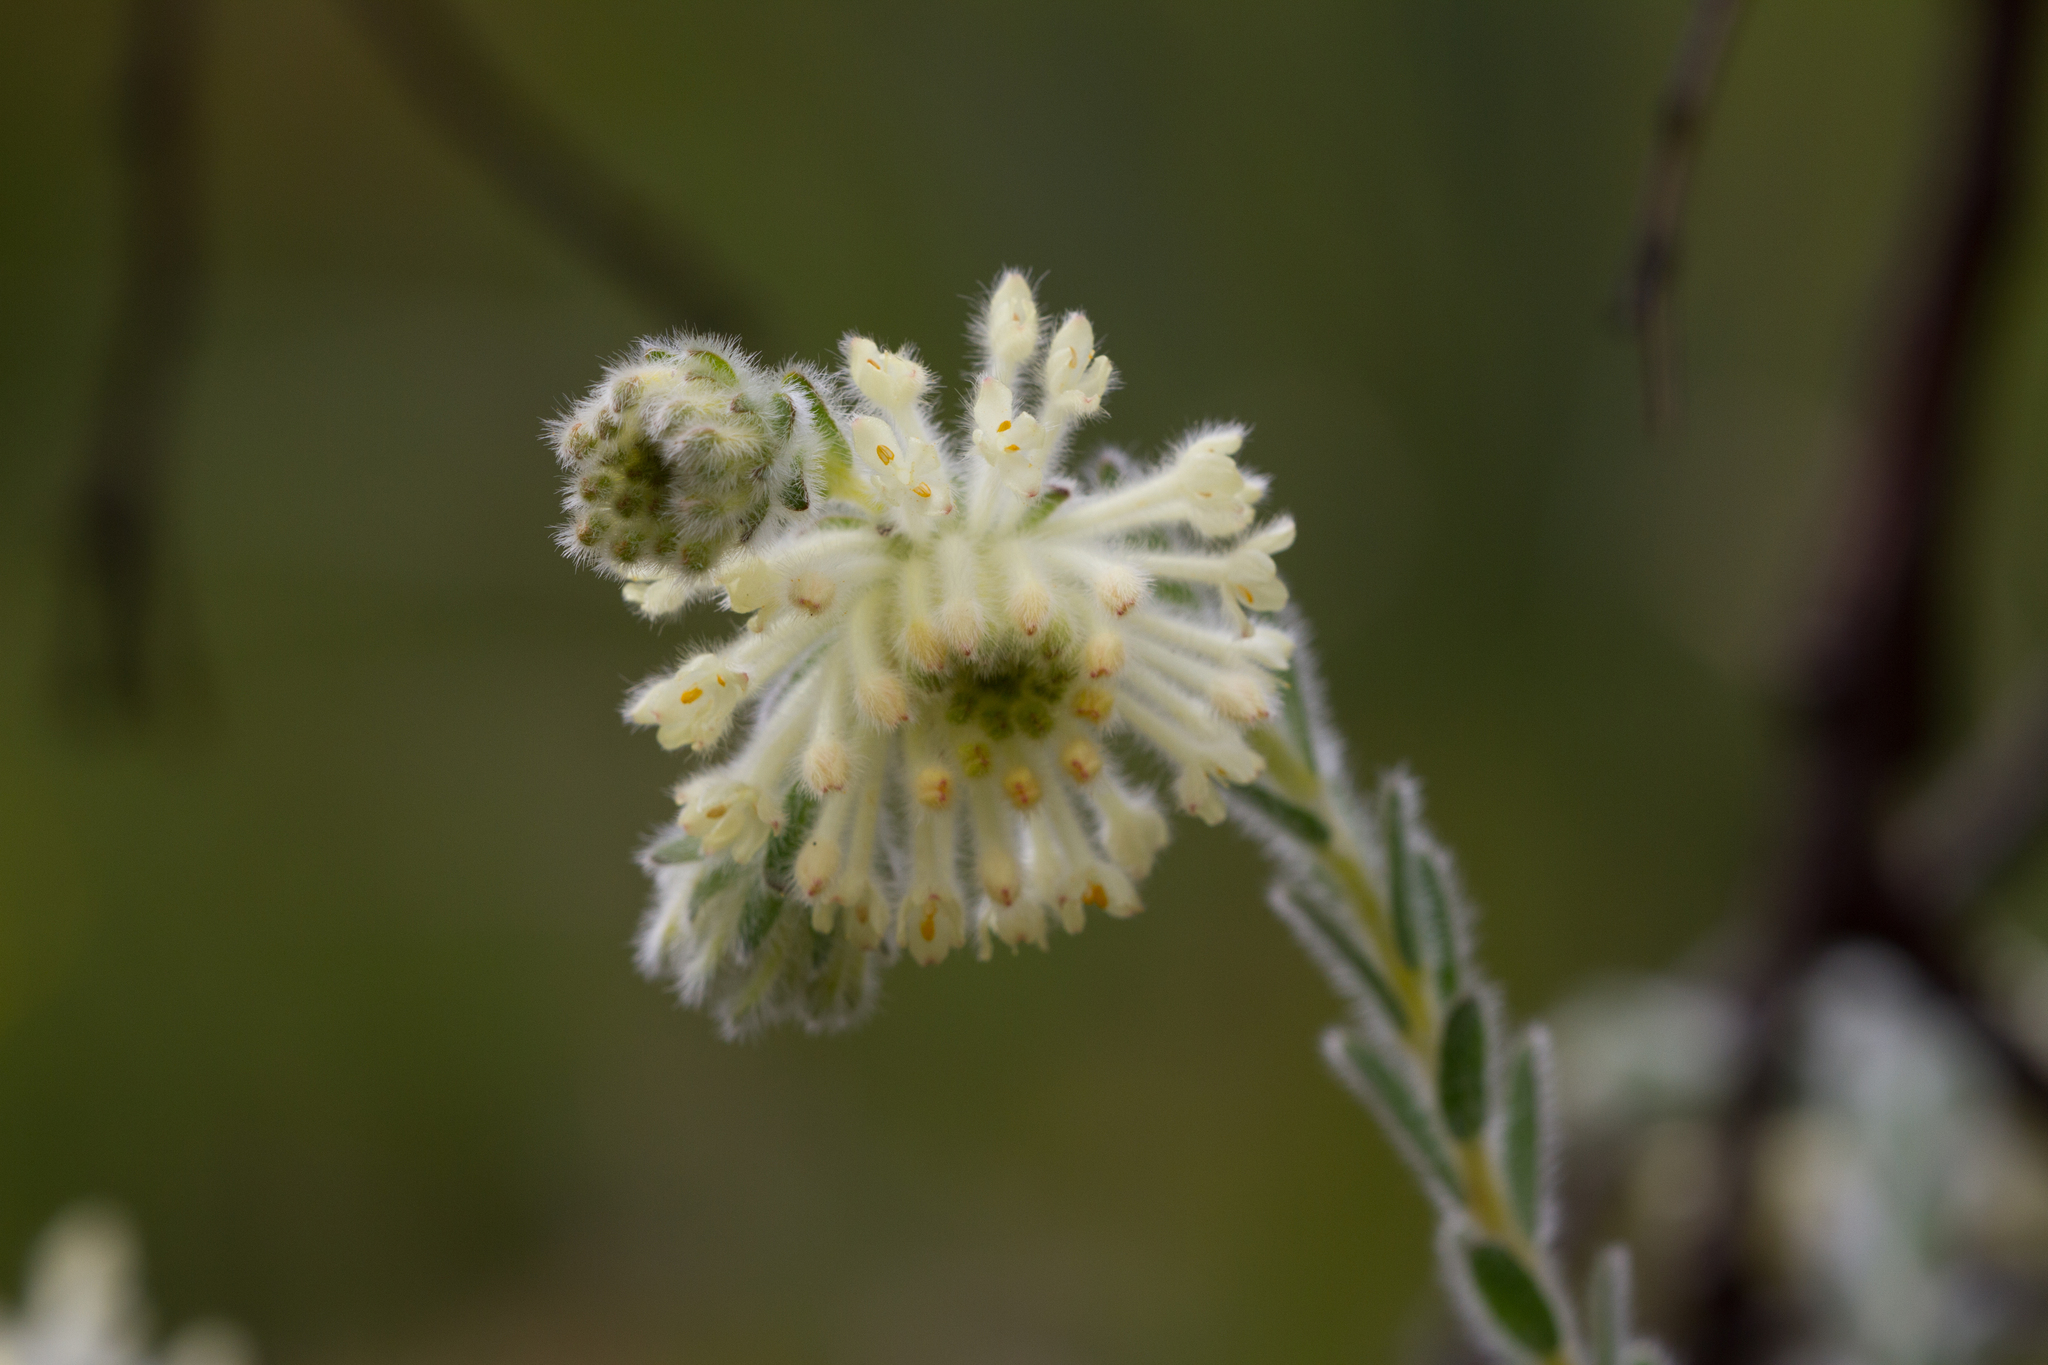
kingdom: Plantae
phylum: Tracheophyta
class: Magnoliopsida
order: Malvales
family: Thymelaeaceae
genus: Pimelea
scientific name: Pimelea octophylla
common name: Woolly riceflower
